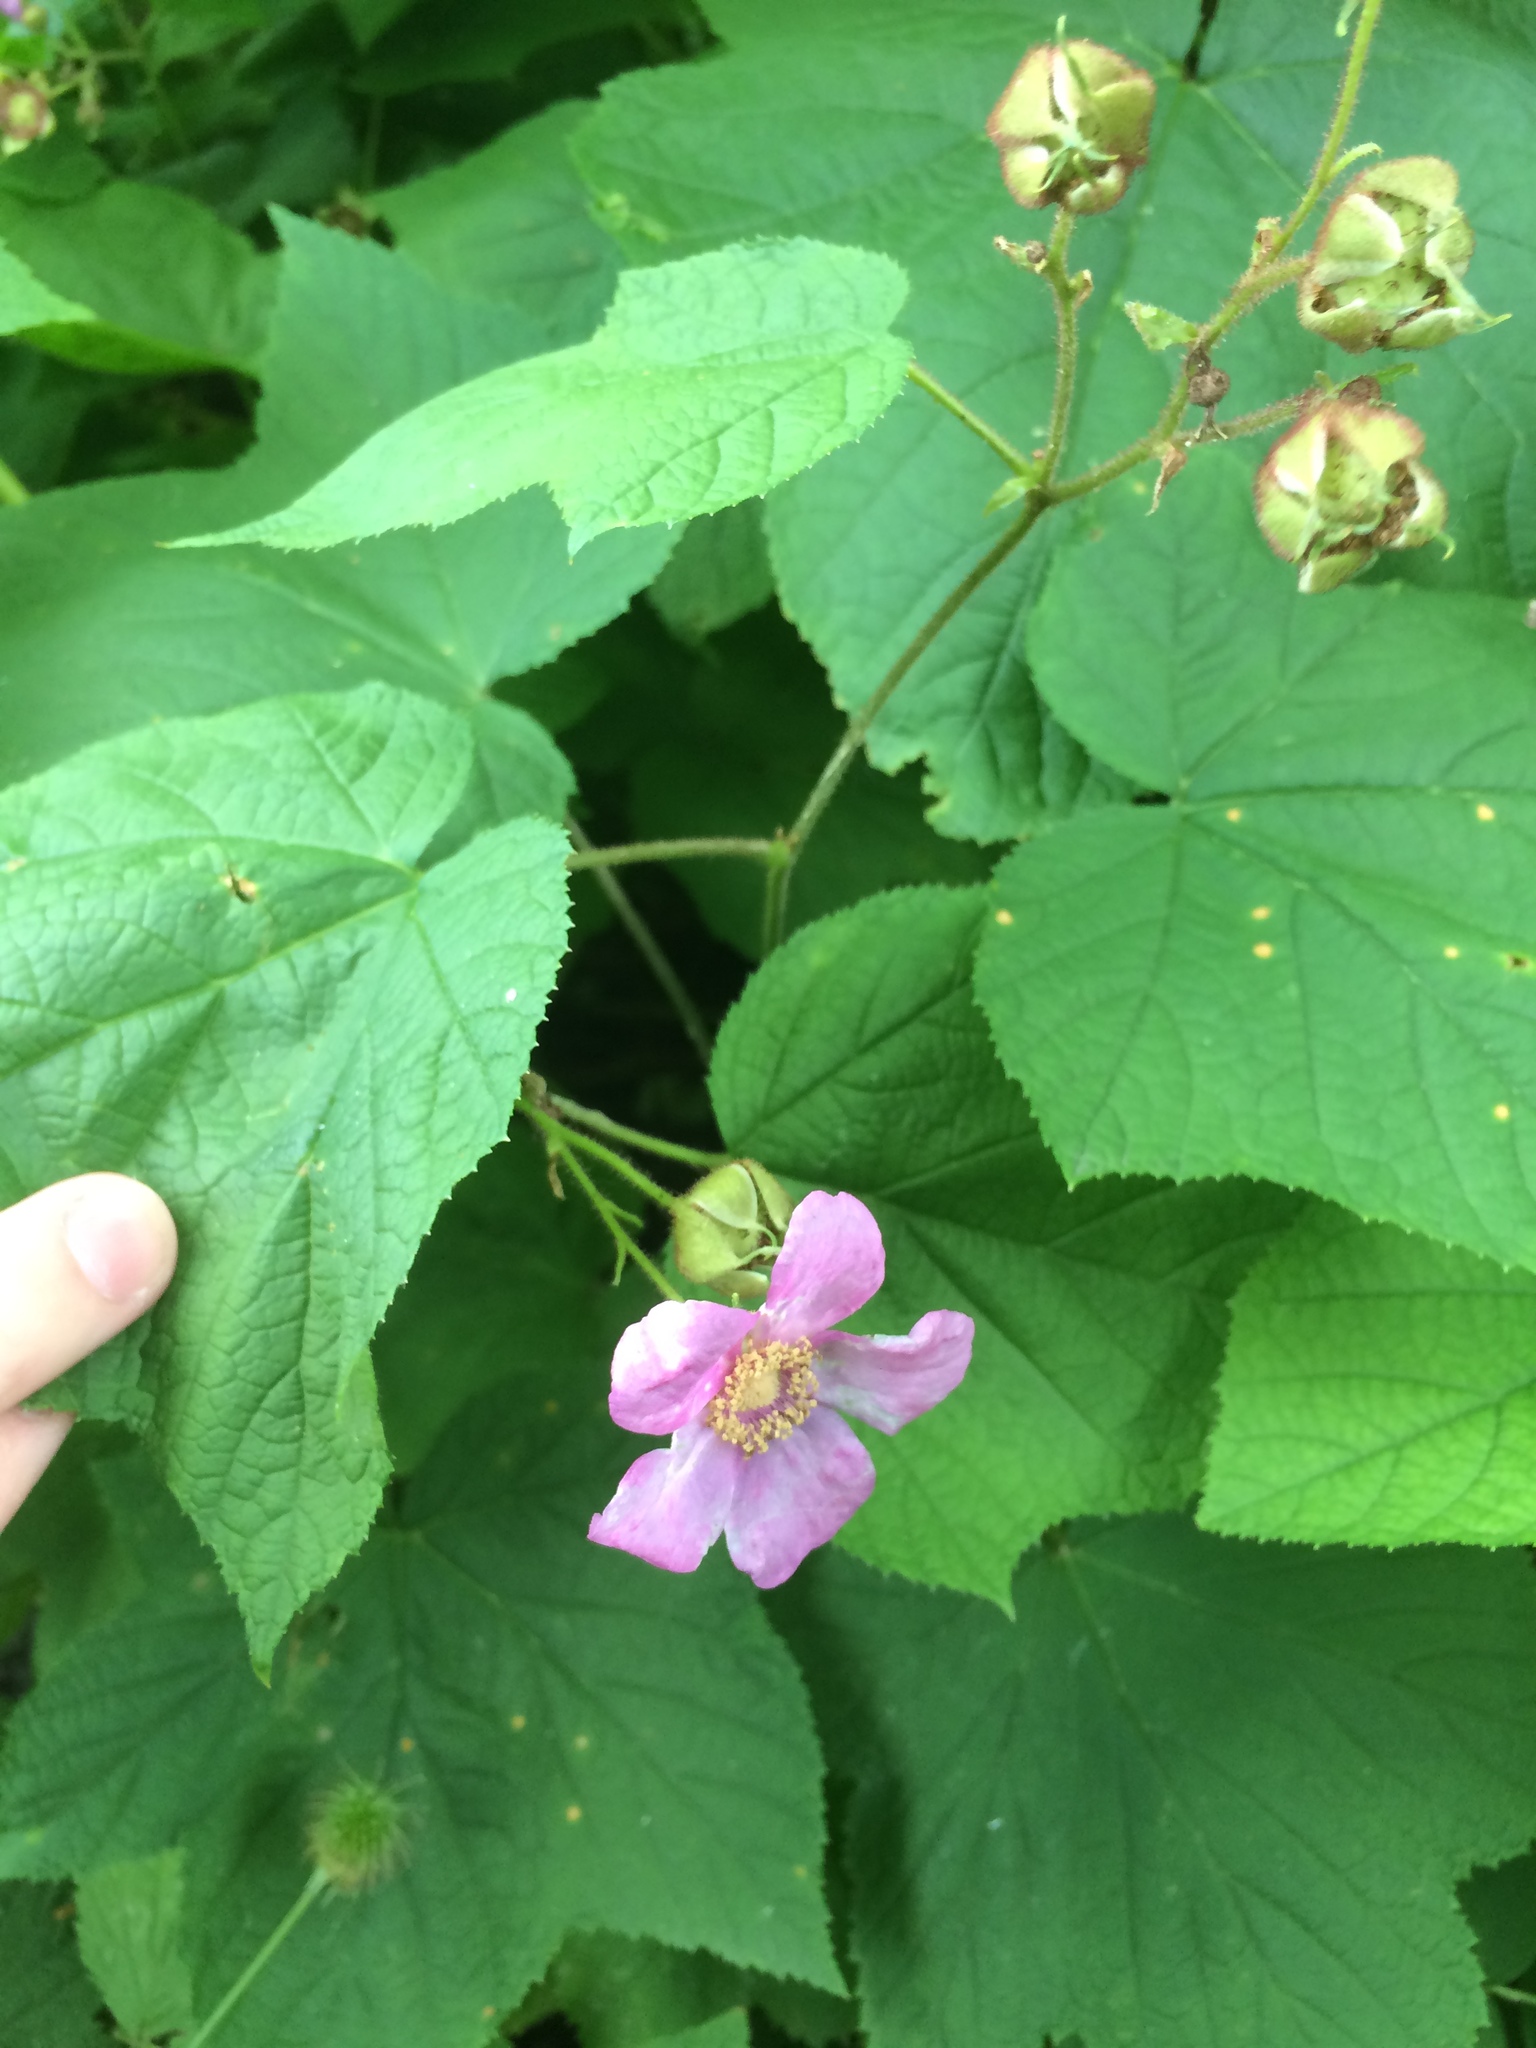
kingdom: Plantae
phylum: Tracheophyta
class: Magnoliopsida
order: Rosales
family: Rosaceae
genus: Rubus
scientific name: Rubus odoratus
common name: Purple-flowered raspberry
